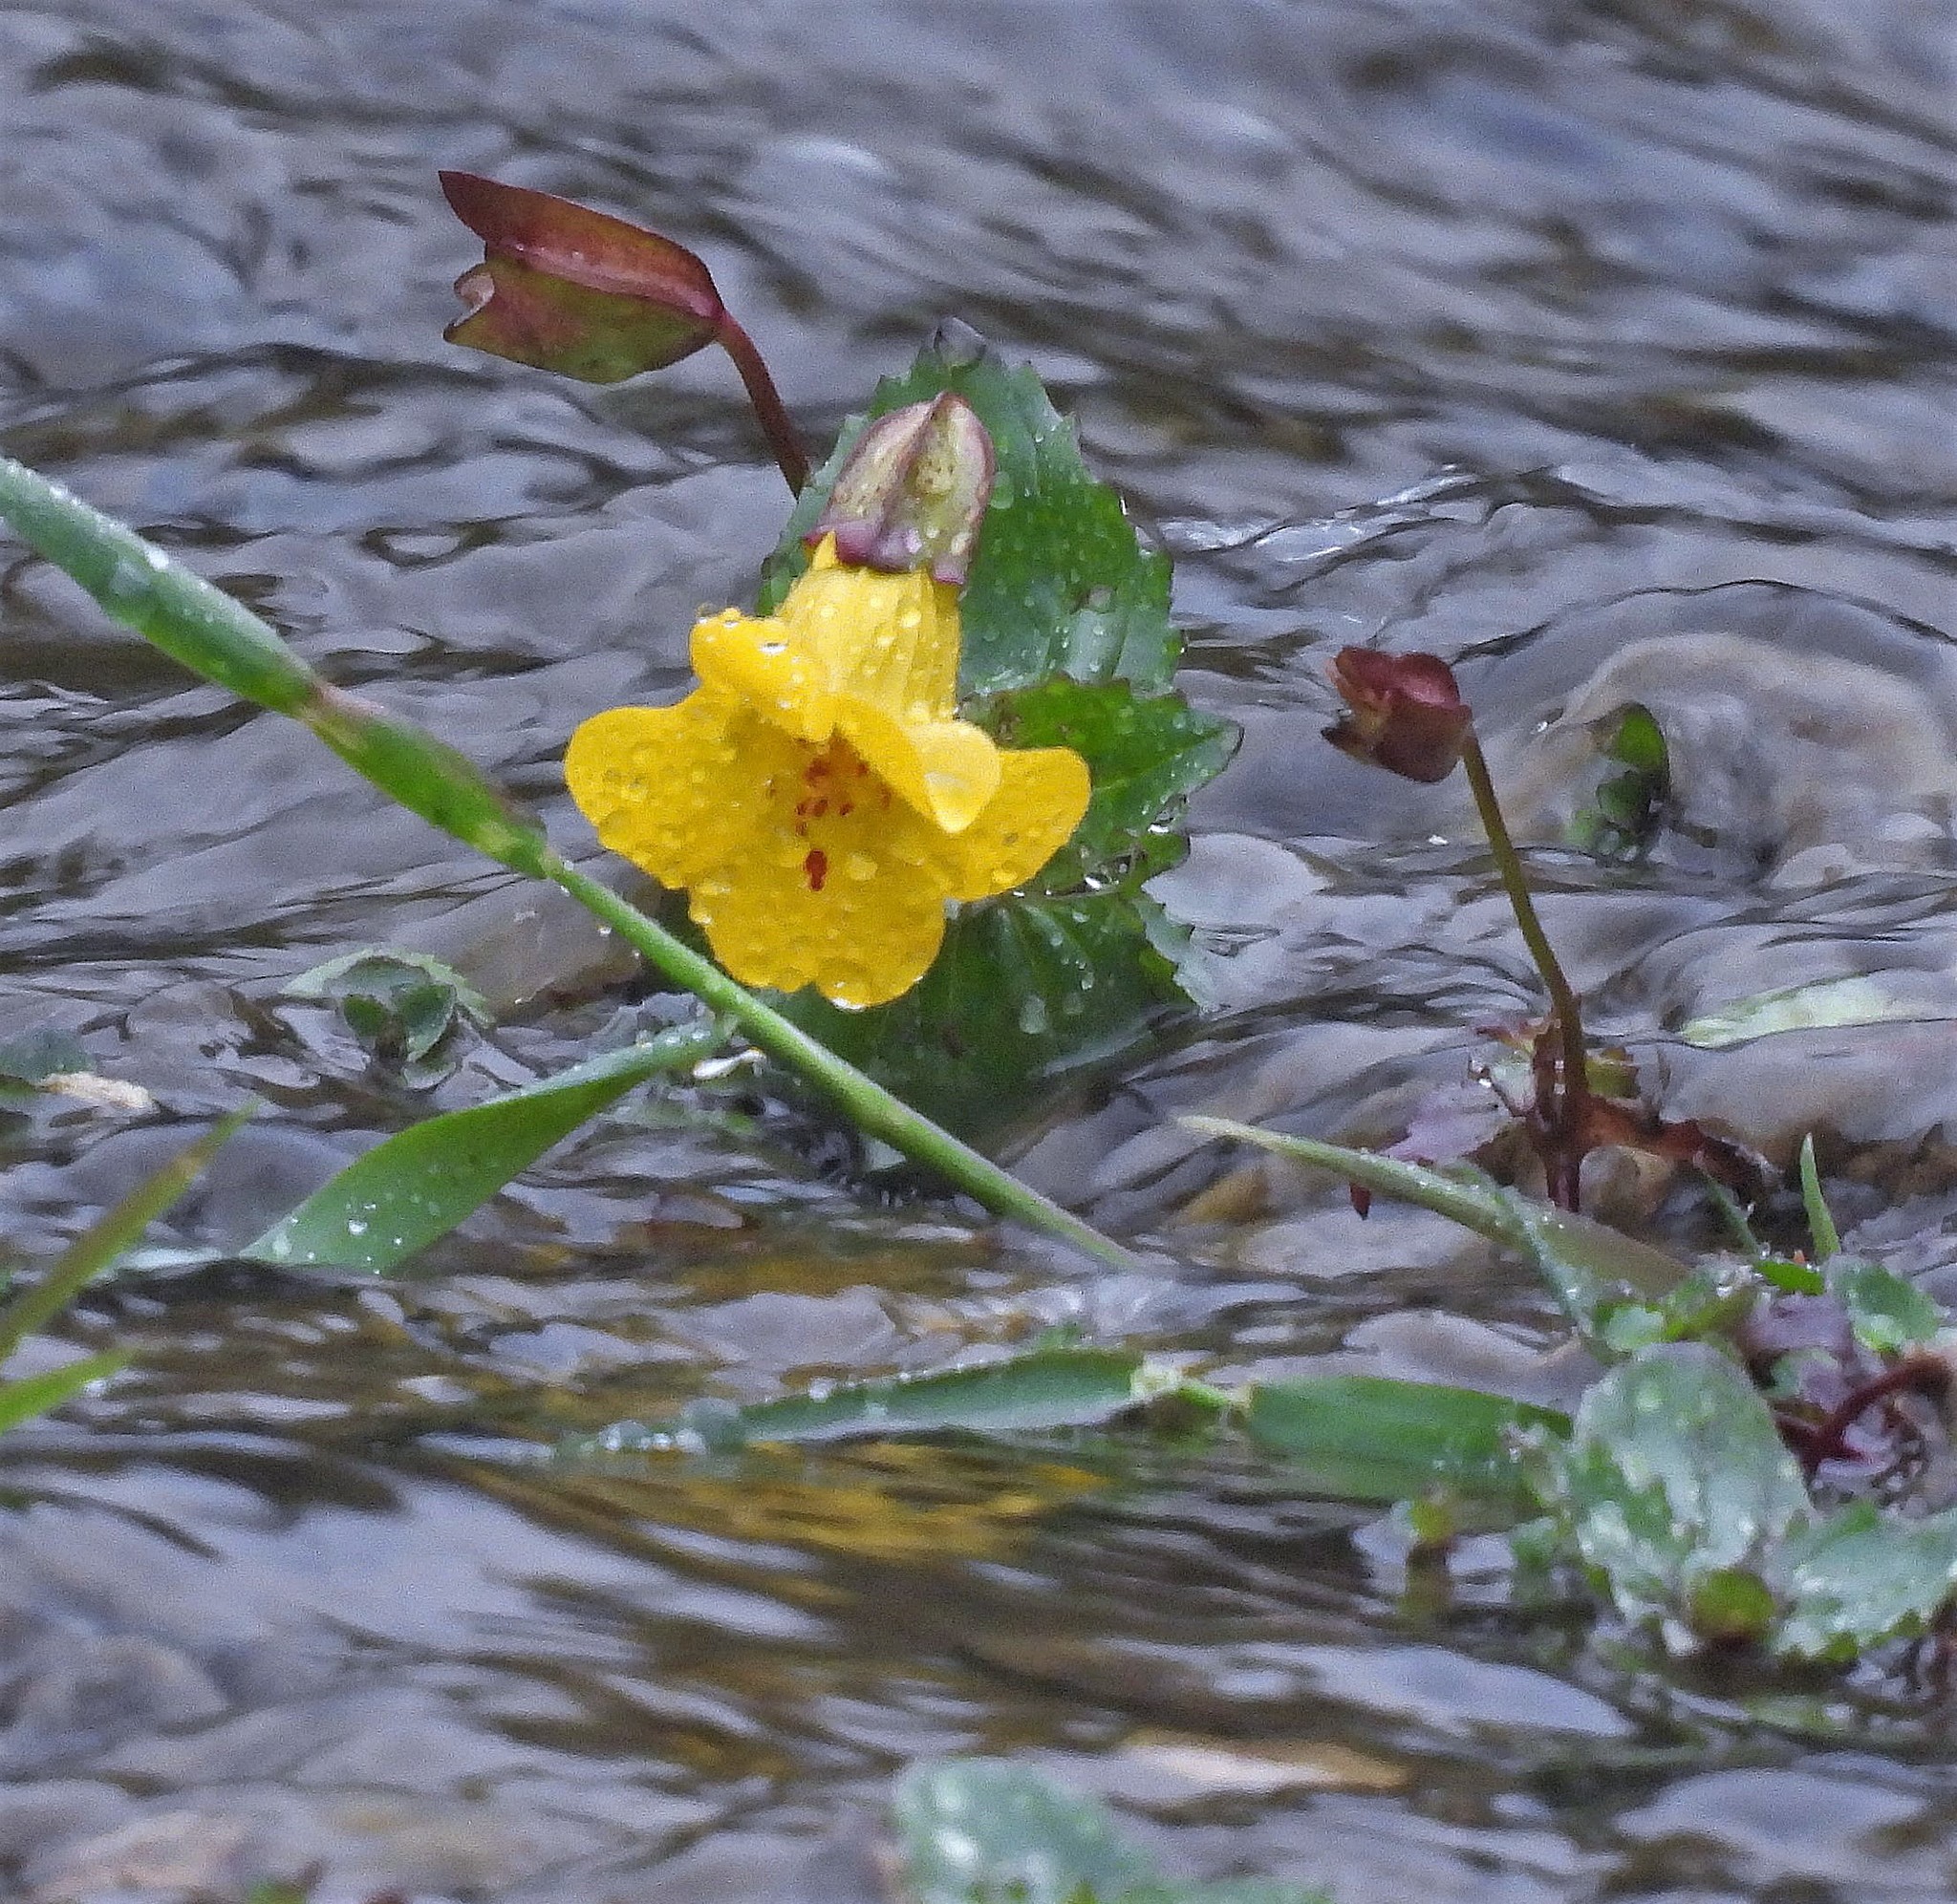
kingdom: Plantae
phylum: Tracheophyta
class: Magnoliopsida
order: Lamiales
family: Phrymaceae
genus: Erythranthe
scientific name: Erythranthe lutea
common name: Yellow monkey-flower
